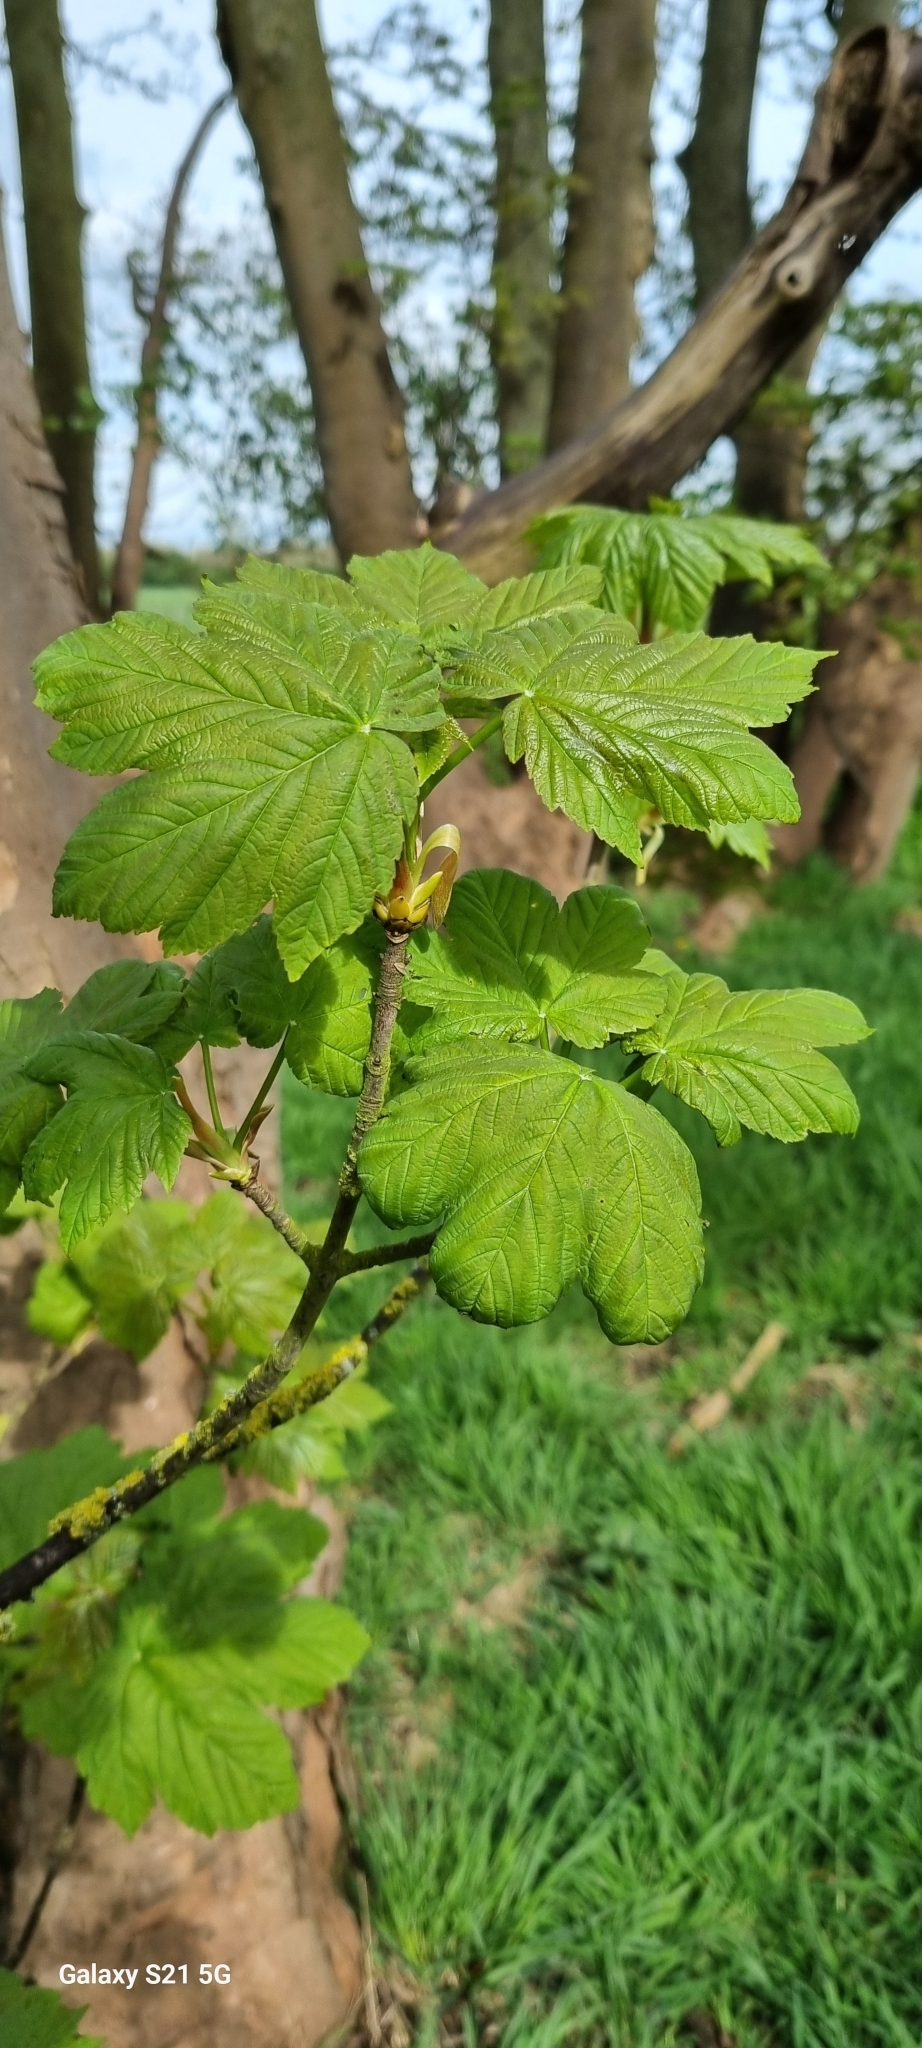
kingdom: Plantae
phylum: Tracheophyta
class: Magnoliopsida
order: Sapindales
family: Sapindaceae
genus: Acer
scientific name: Acer pseudoplatanus
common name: Sycamore
